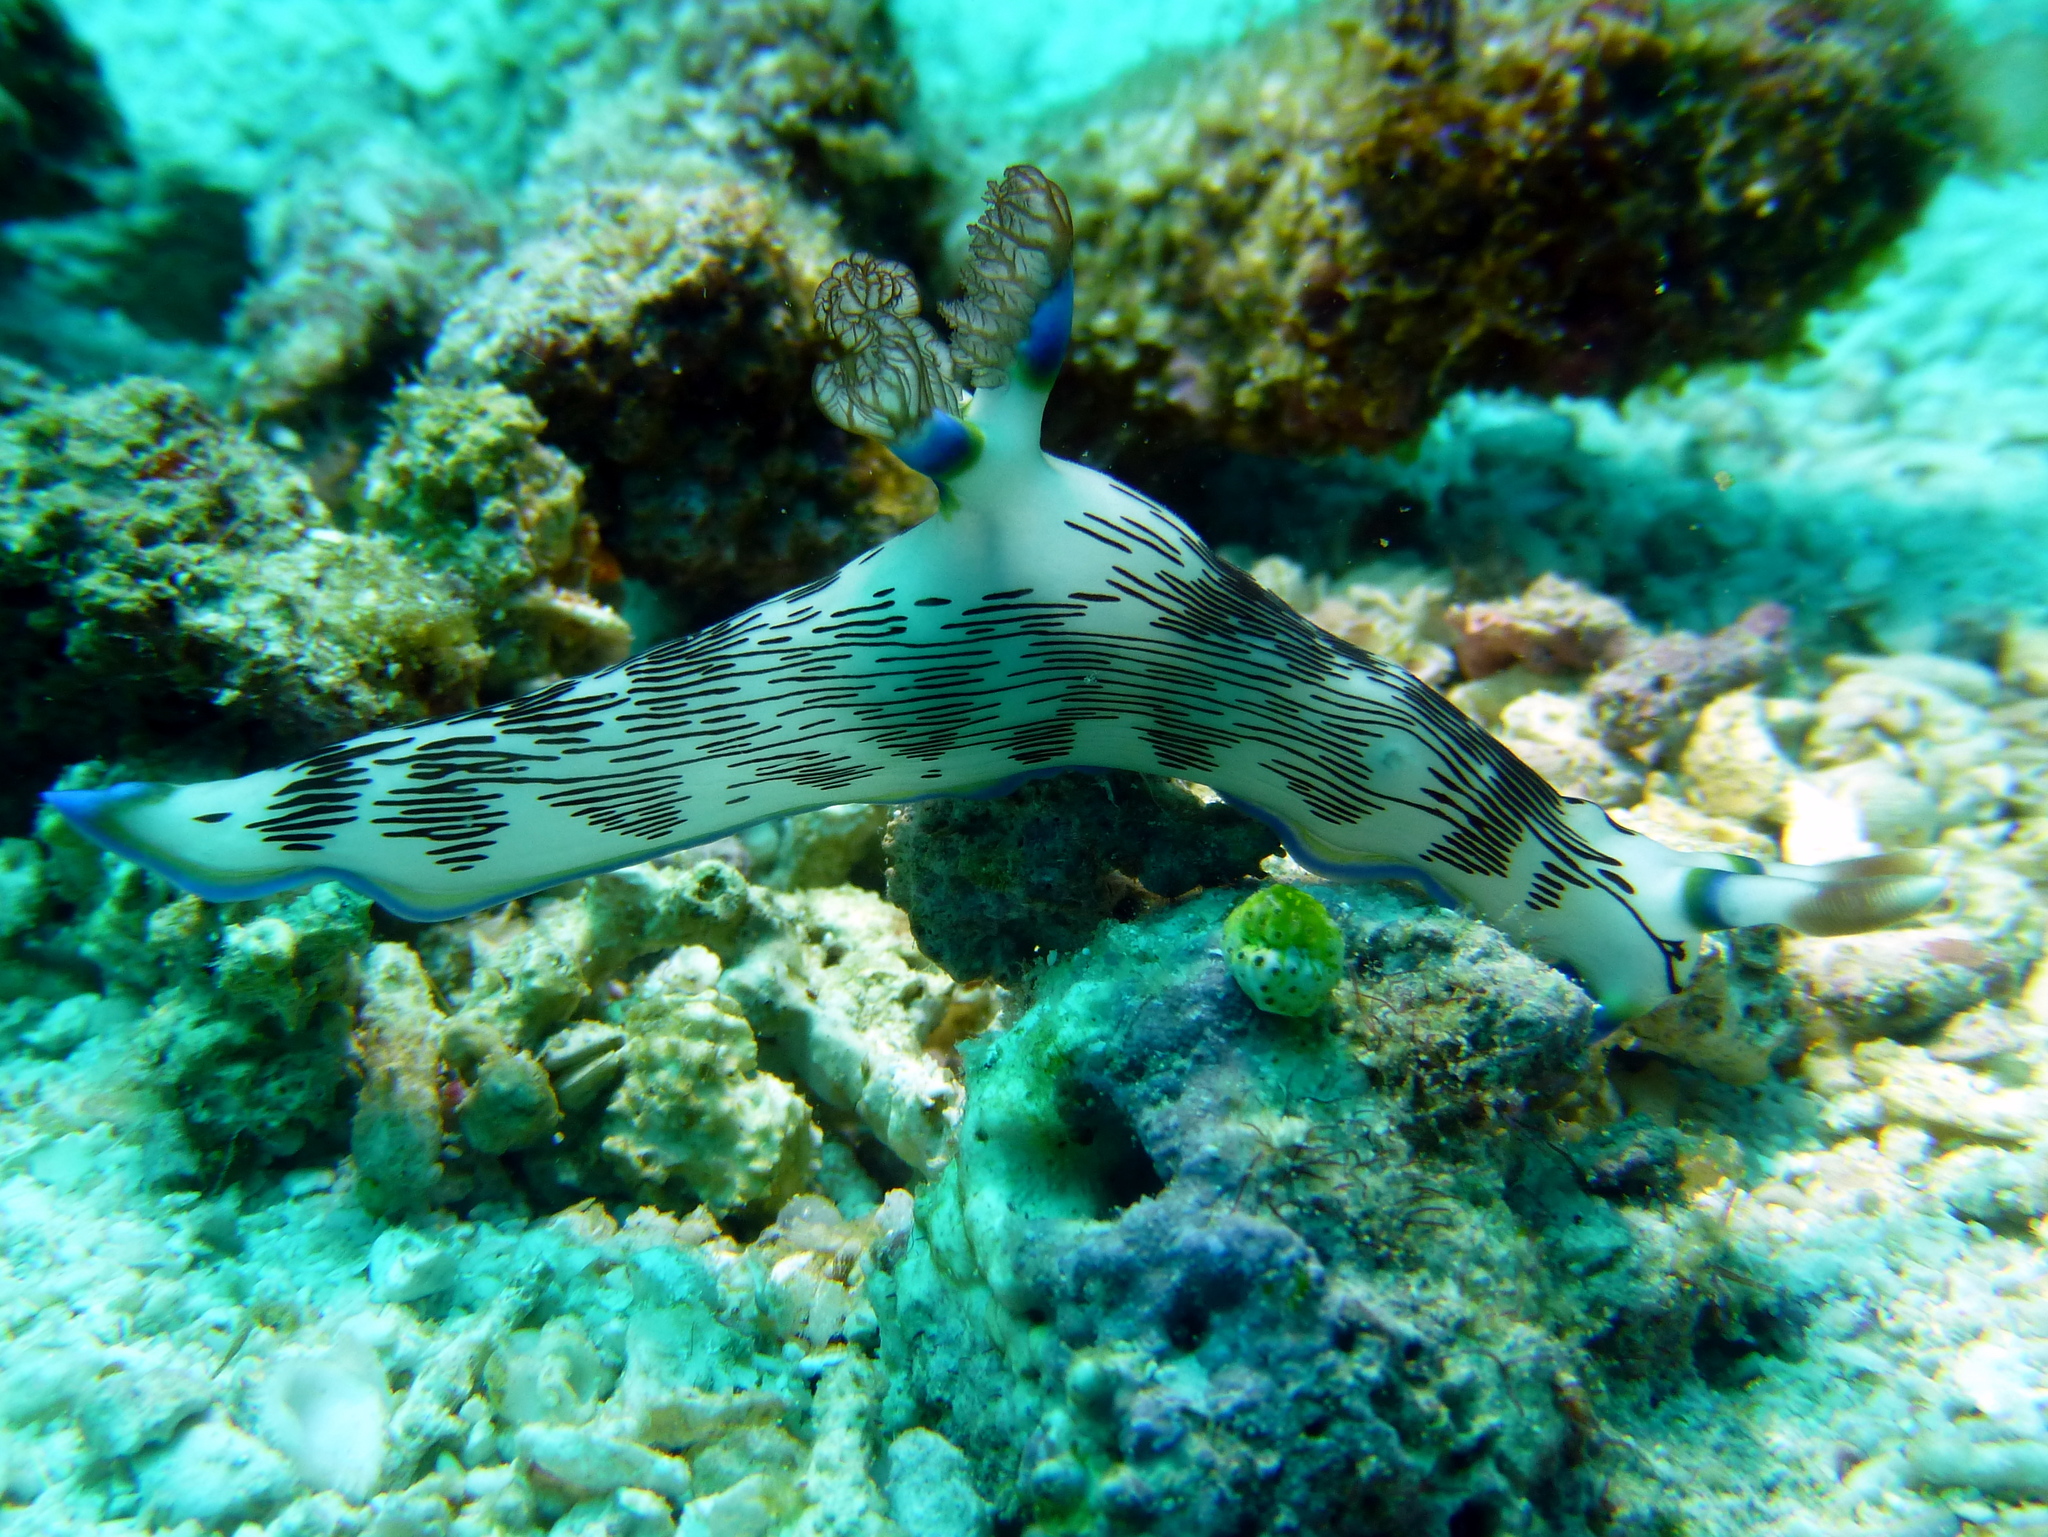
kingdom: Animalia
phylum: Mollusca
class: Gastropoda
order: Nudibranchia
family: Polyceridae
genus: Nembrotha
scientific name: Nembrotha lineolata
